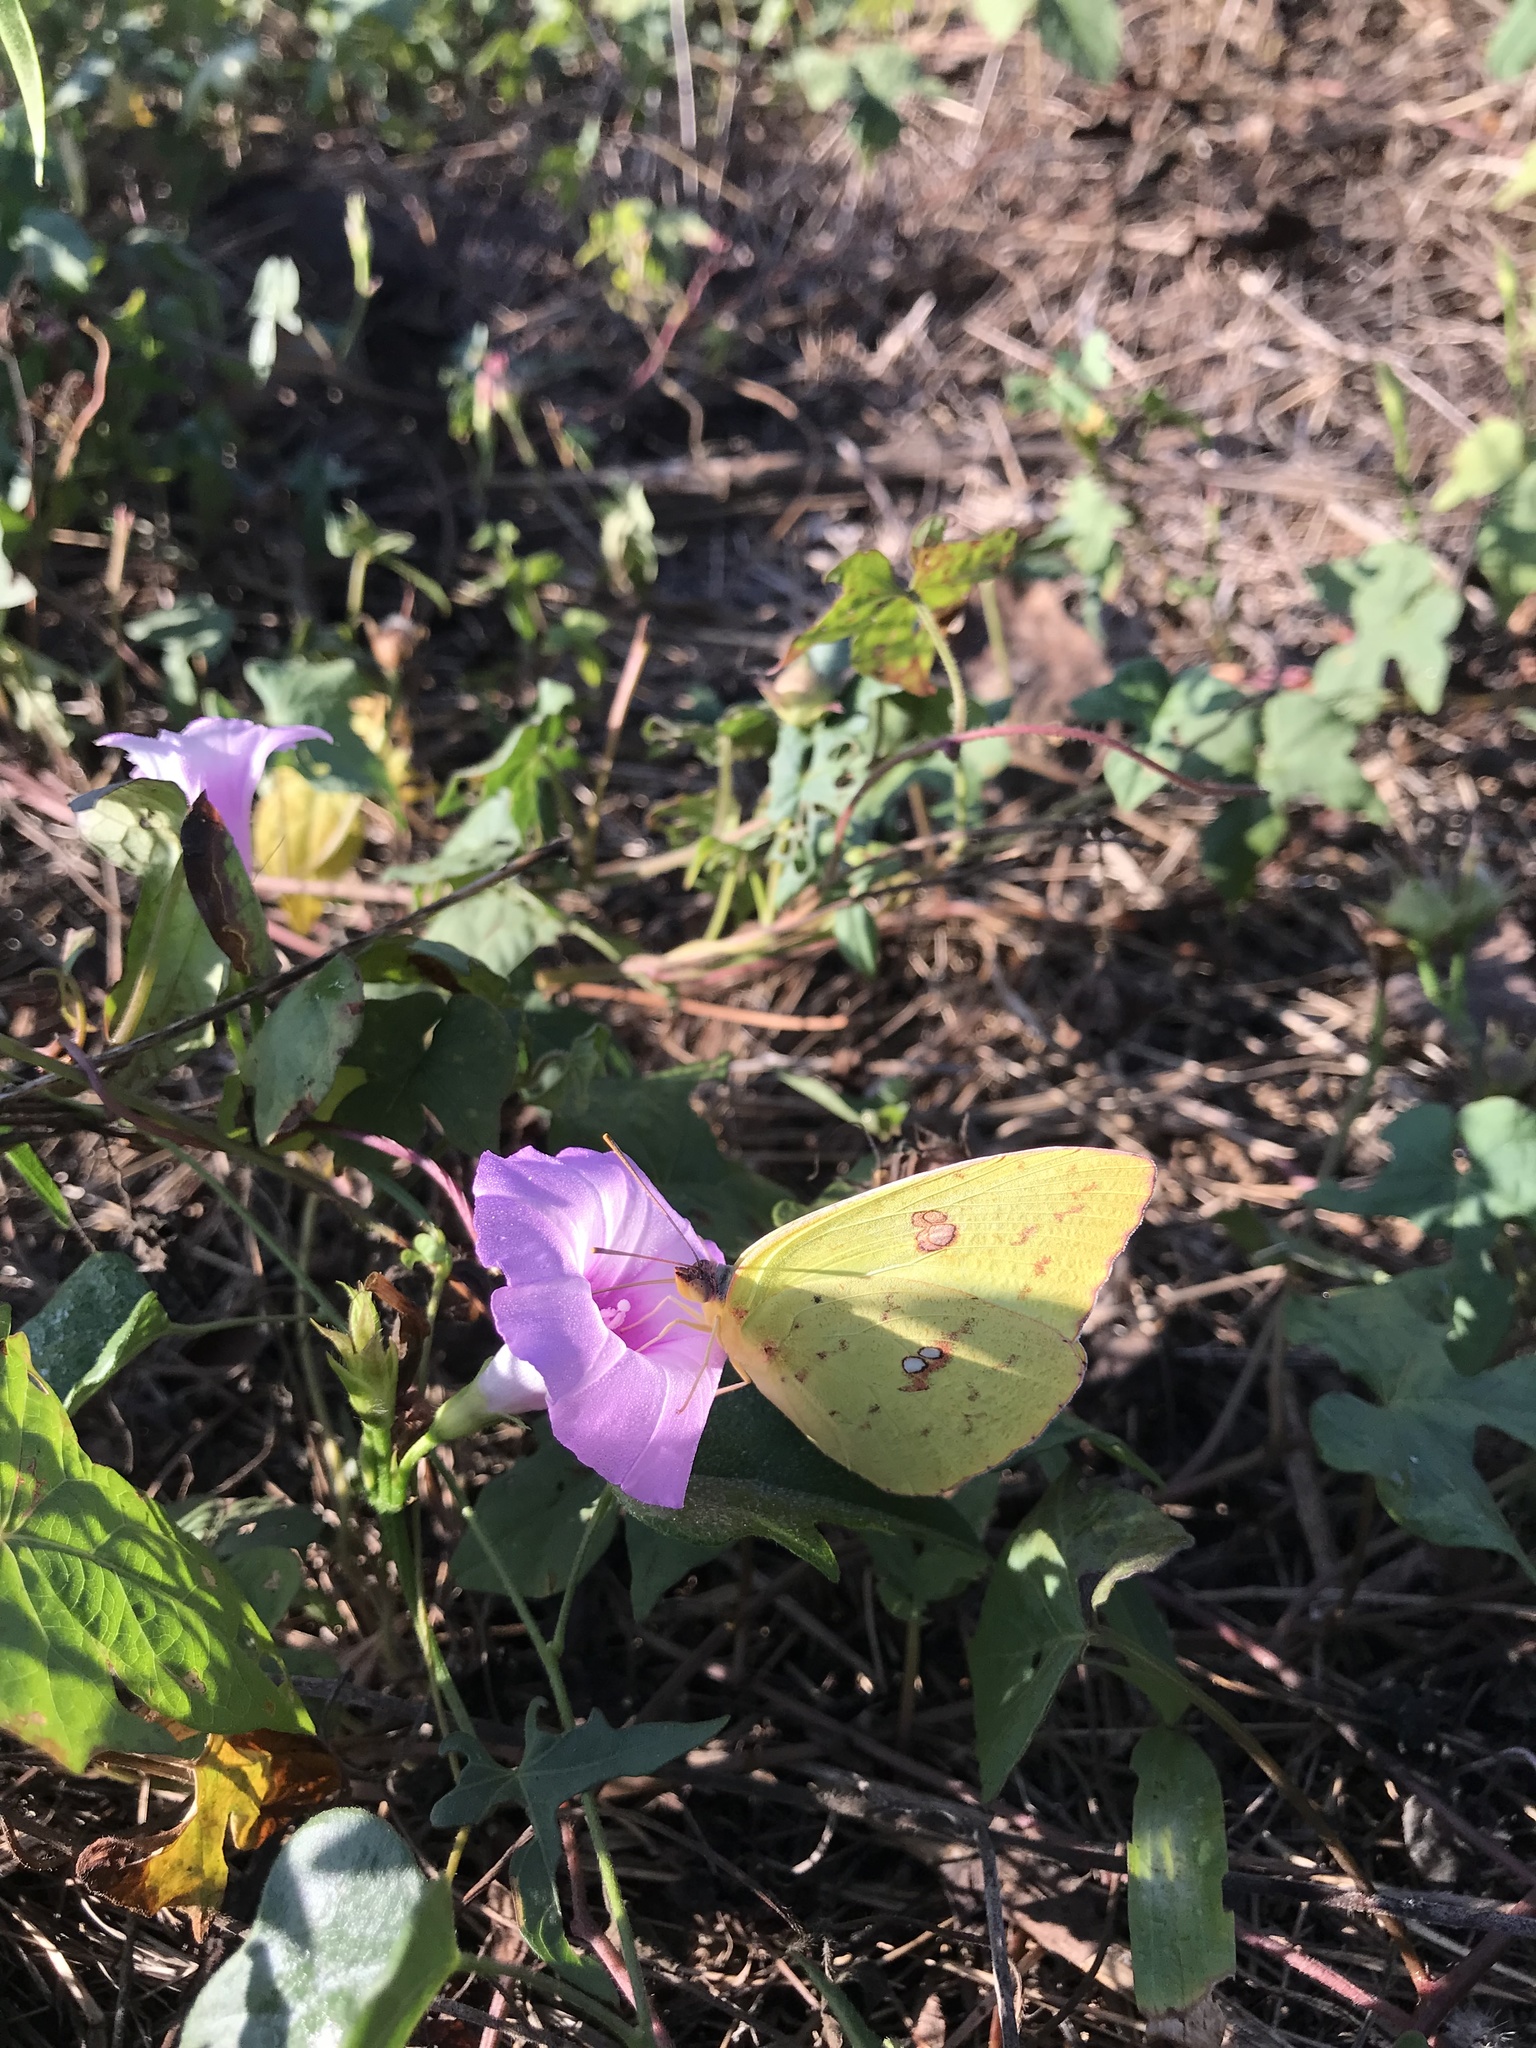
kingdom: Animalia
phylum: Arthropoda
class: Insecta
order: Lepidoptera
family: Pieridae
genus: Phoebis
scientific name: Phoebis sennae
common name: Cloudless sulphur
